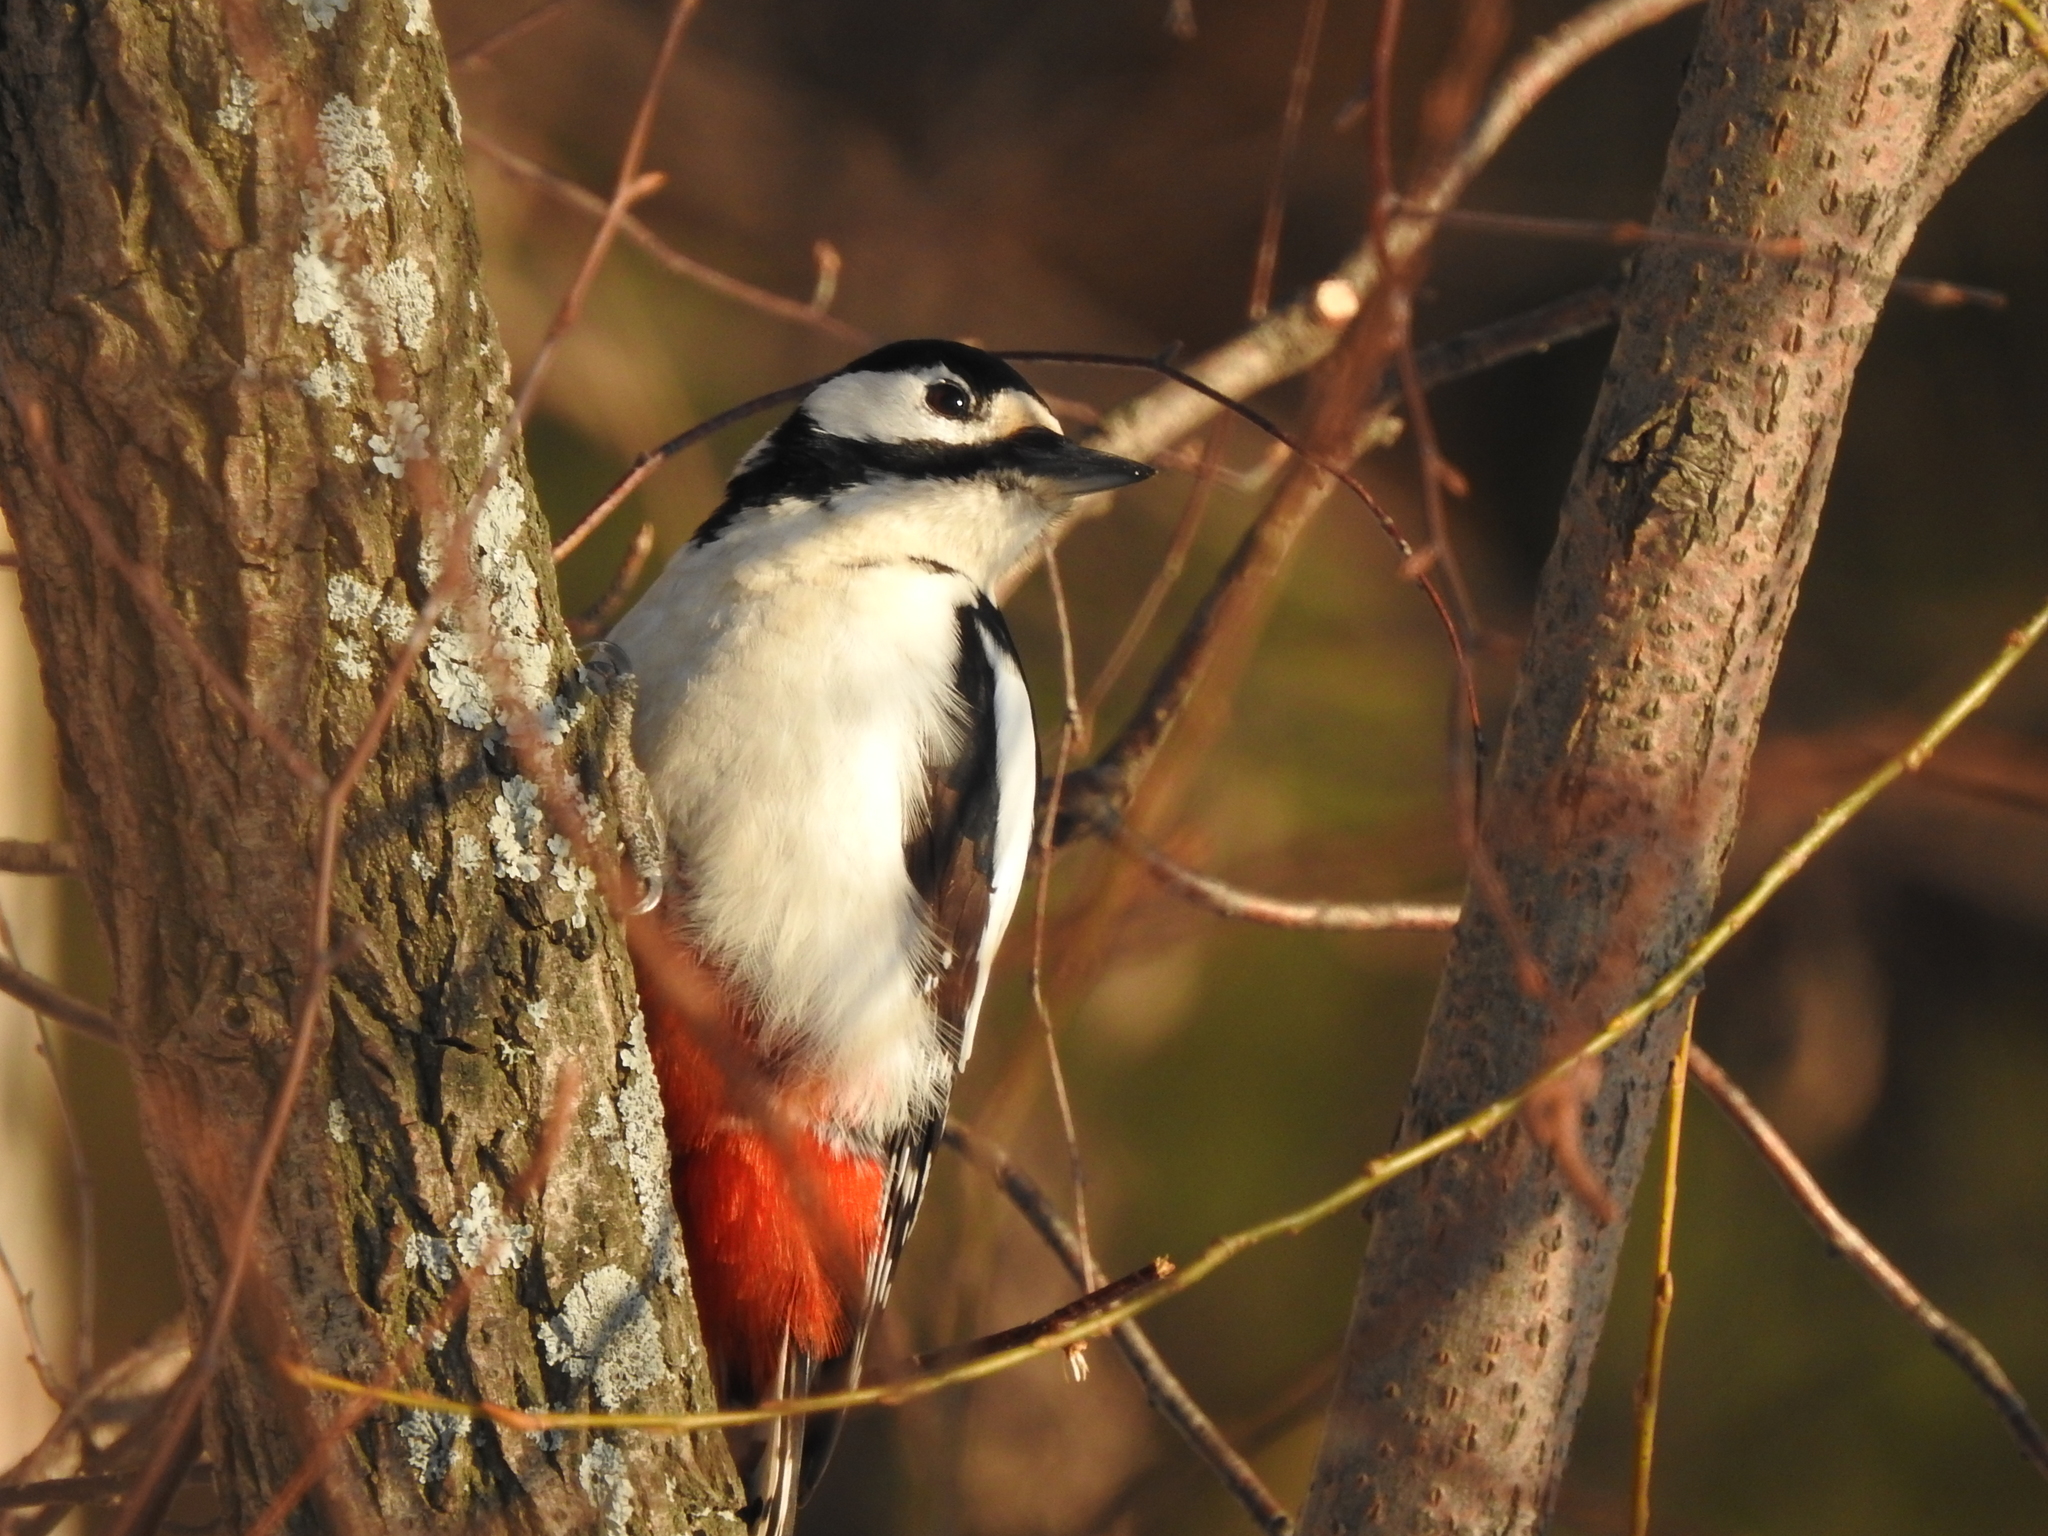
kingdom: Animalia
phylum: Chordata
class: Aves
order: Piciformes
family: Picidae
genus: Dendrocopos
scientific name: Dendrocopos major
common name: Great spotted woodpecker
